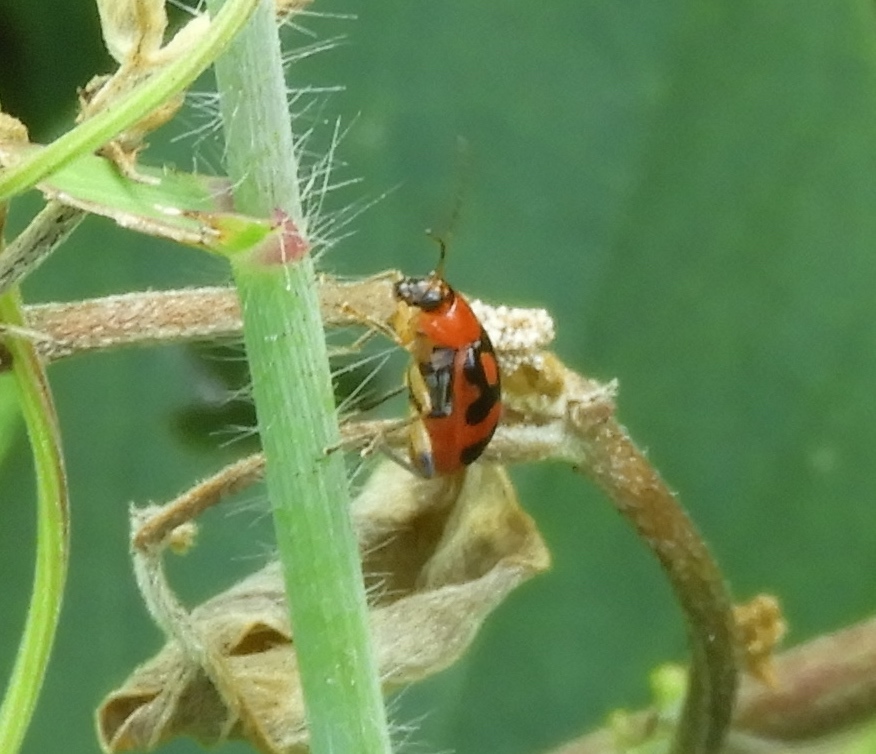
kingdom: Animalia
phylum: Arthropoda
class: Insecta
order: Coleoptera
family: Chrysomelidae
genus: Cerotoma
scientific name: Cerotoma ruficornis
